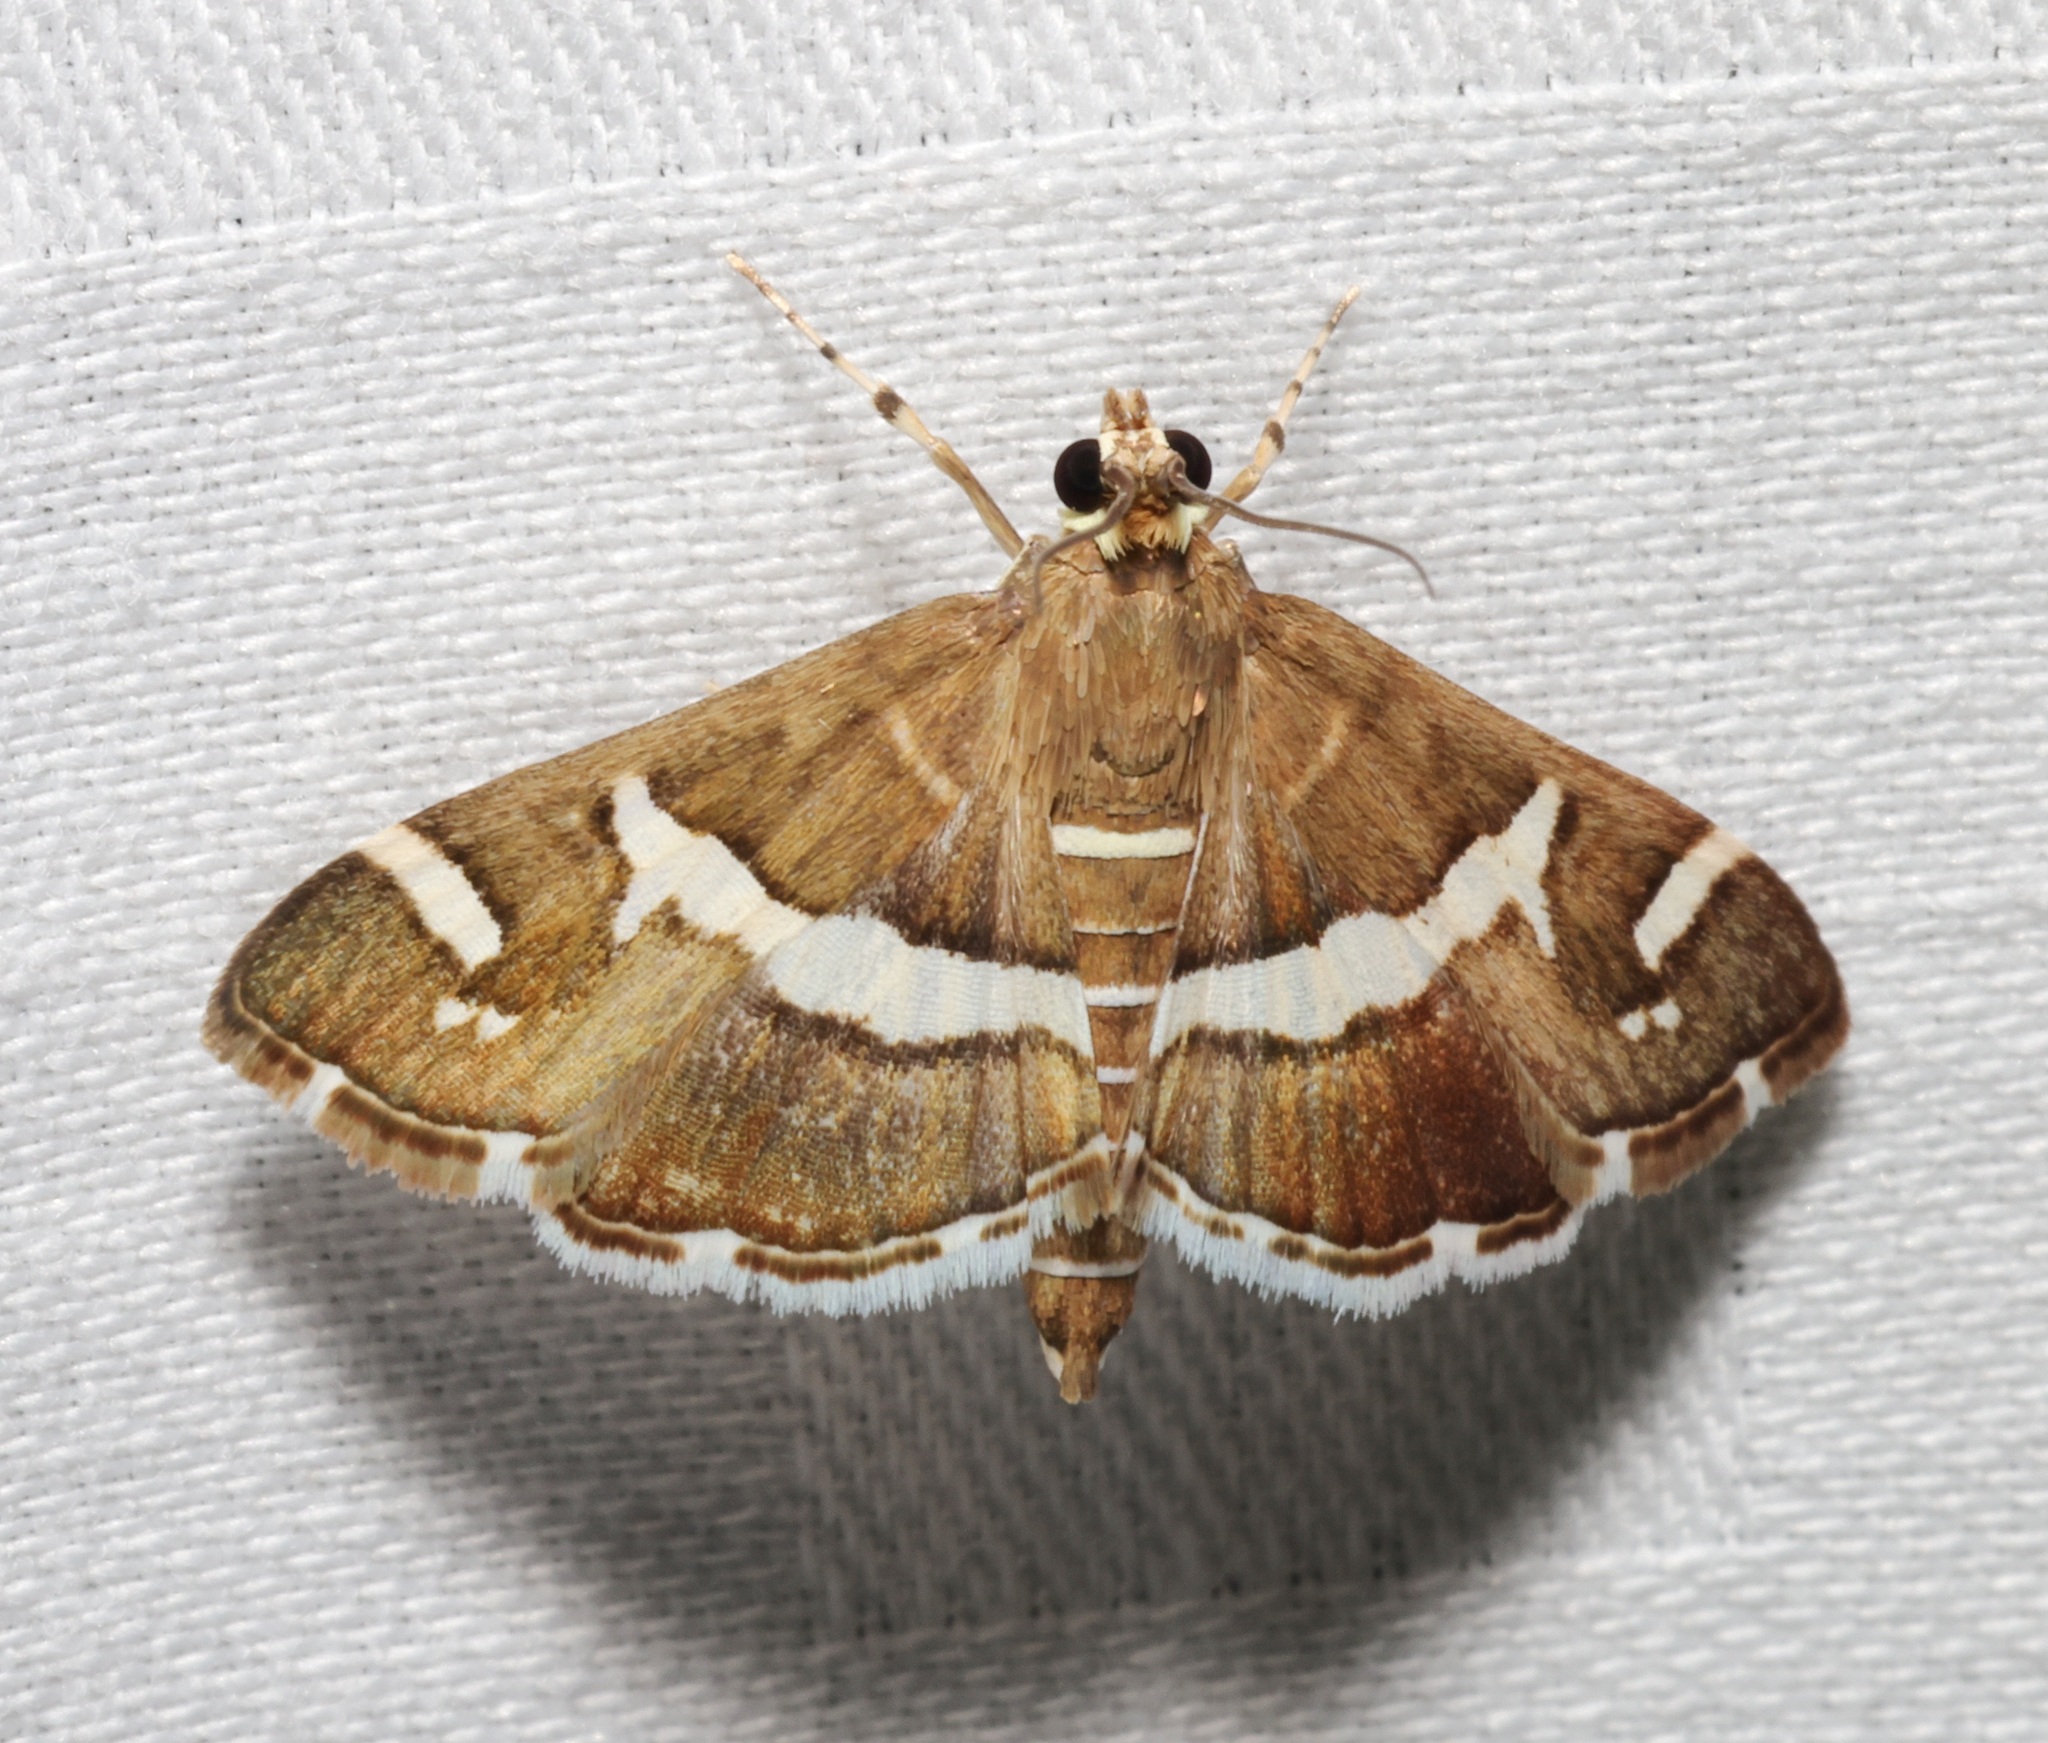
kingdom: Animalia
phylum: Arthropoda
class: Insecta
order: Lepidoptera
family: Crambidae
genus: Spoladea
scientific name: Spoladea recurvalis
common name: Beet webworm moth
